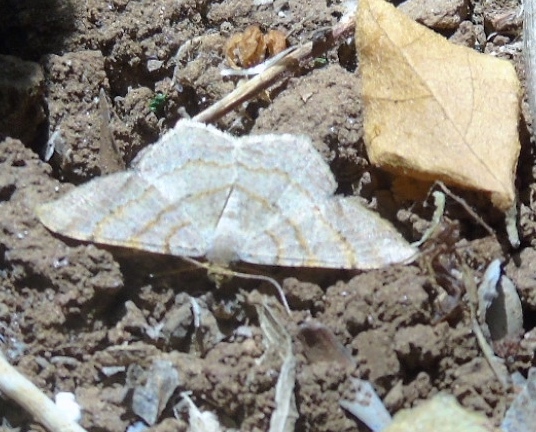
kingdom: Animalia
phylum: Arthropoda
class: Insecta
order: Lepidoptera
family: Geometridae
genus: Ennominae
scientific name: Ennominae
